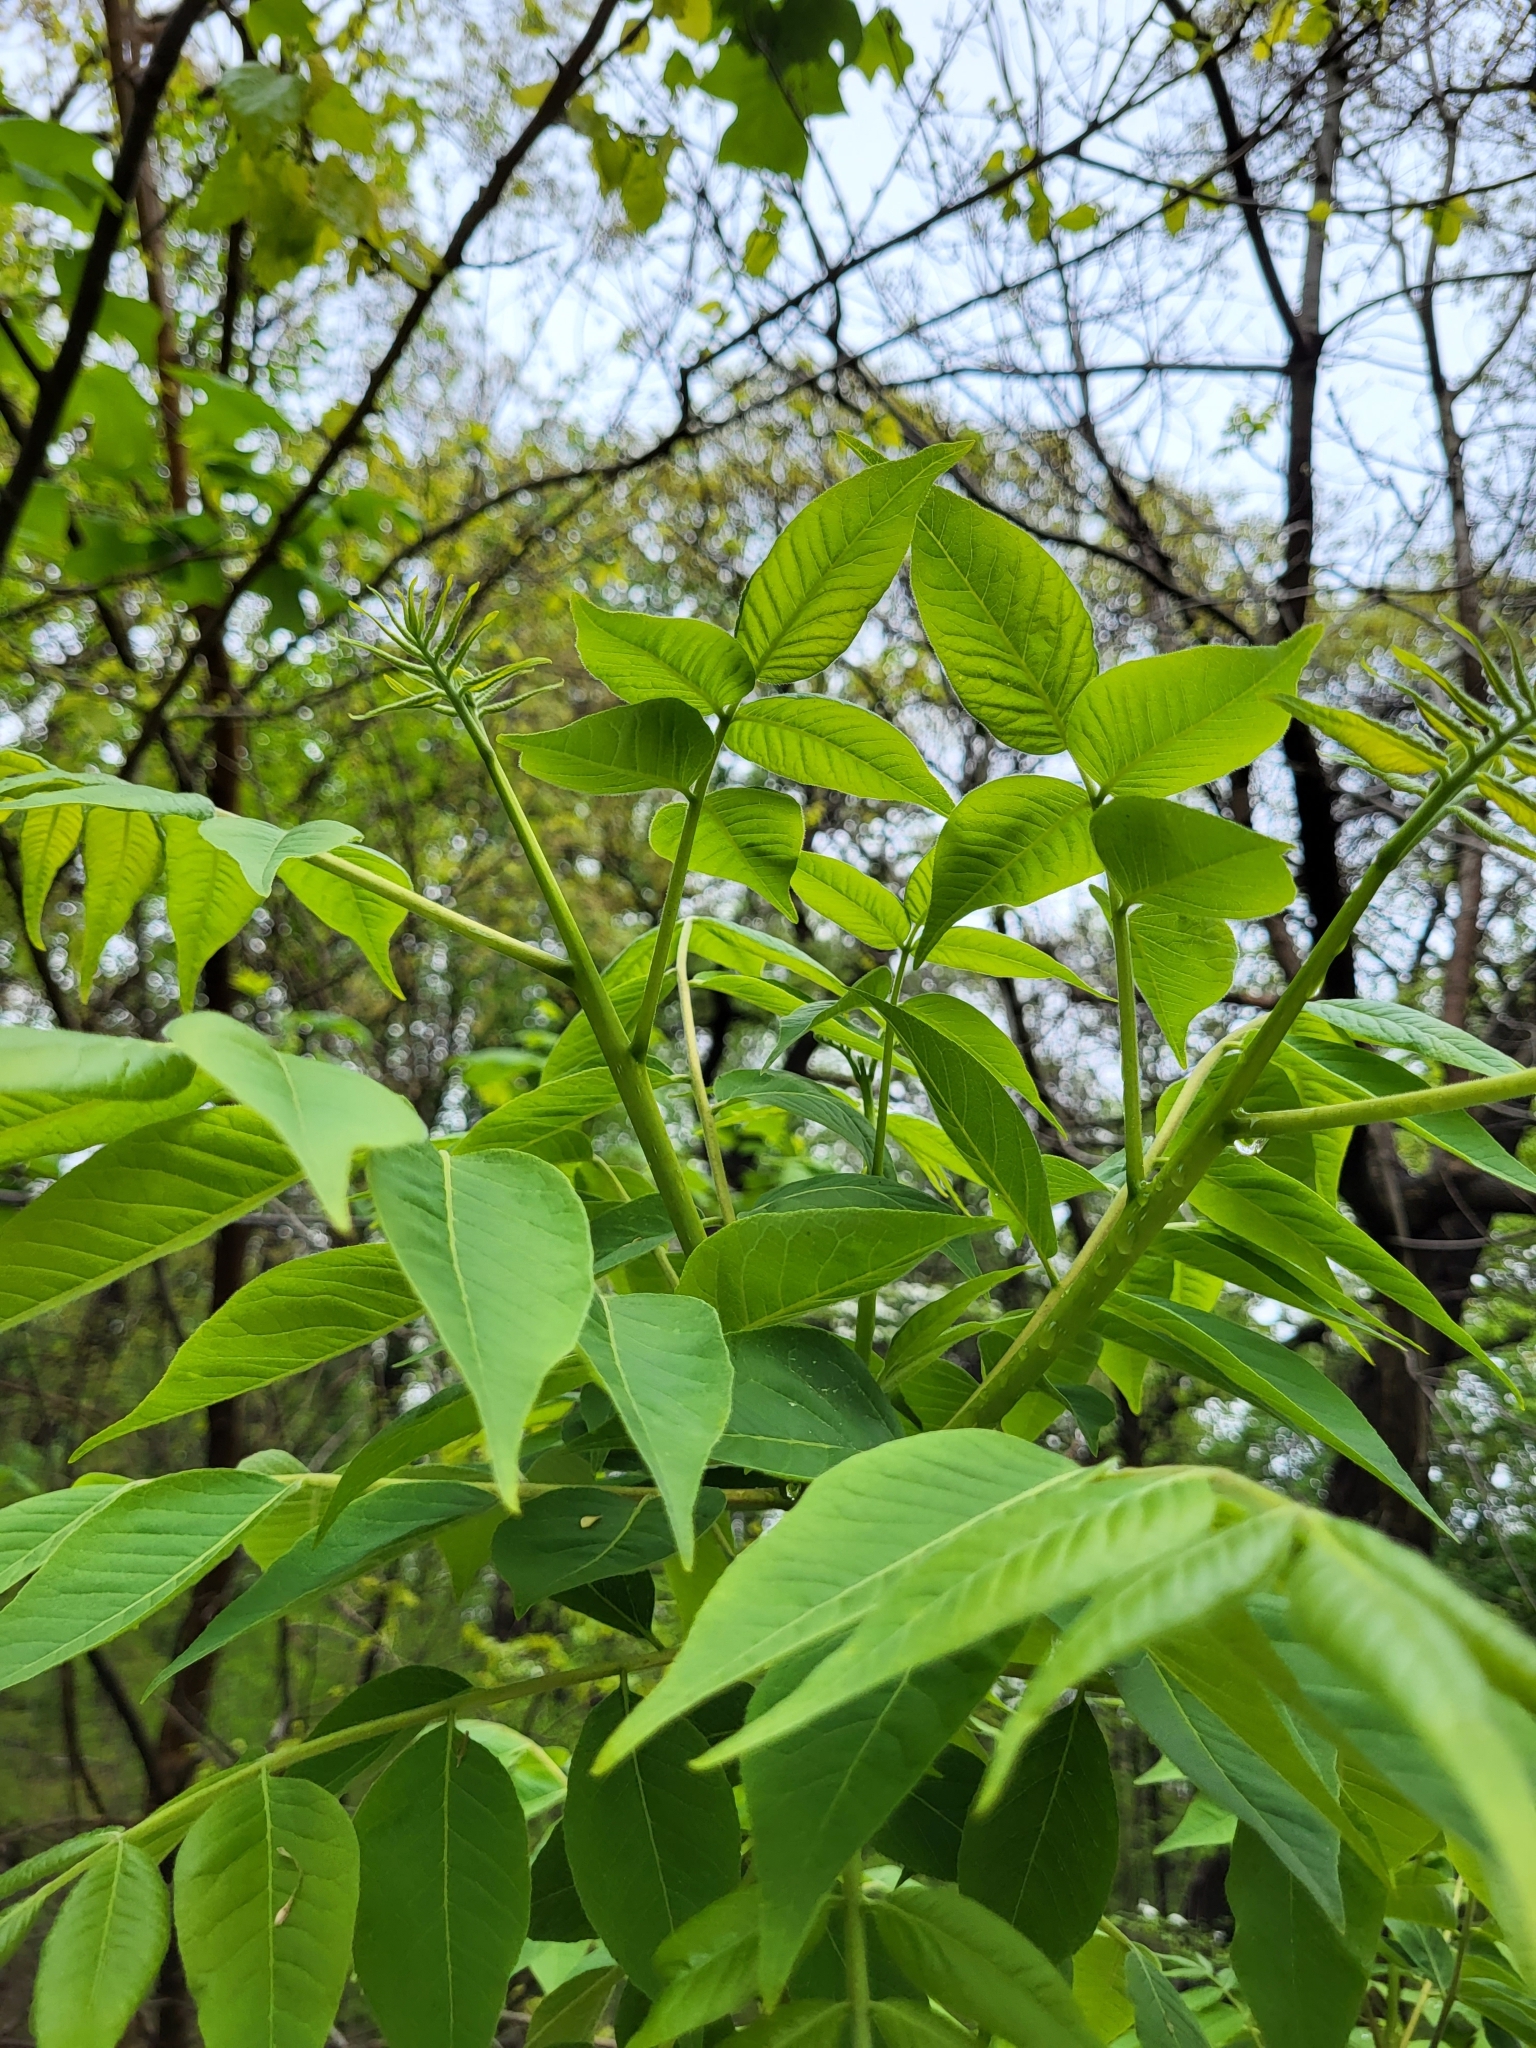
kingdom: Plantae
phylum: Tracheophyta
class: Magnoliopsida
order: Sapindales
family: Rutaceae
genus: Phellodendron
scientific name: Phellodendron amurense
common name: Amur corktree
